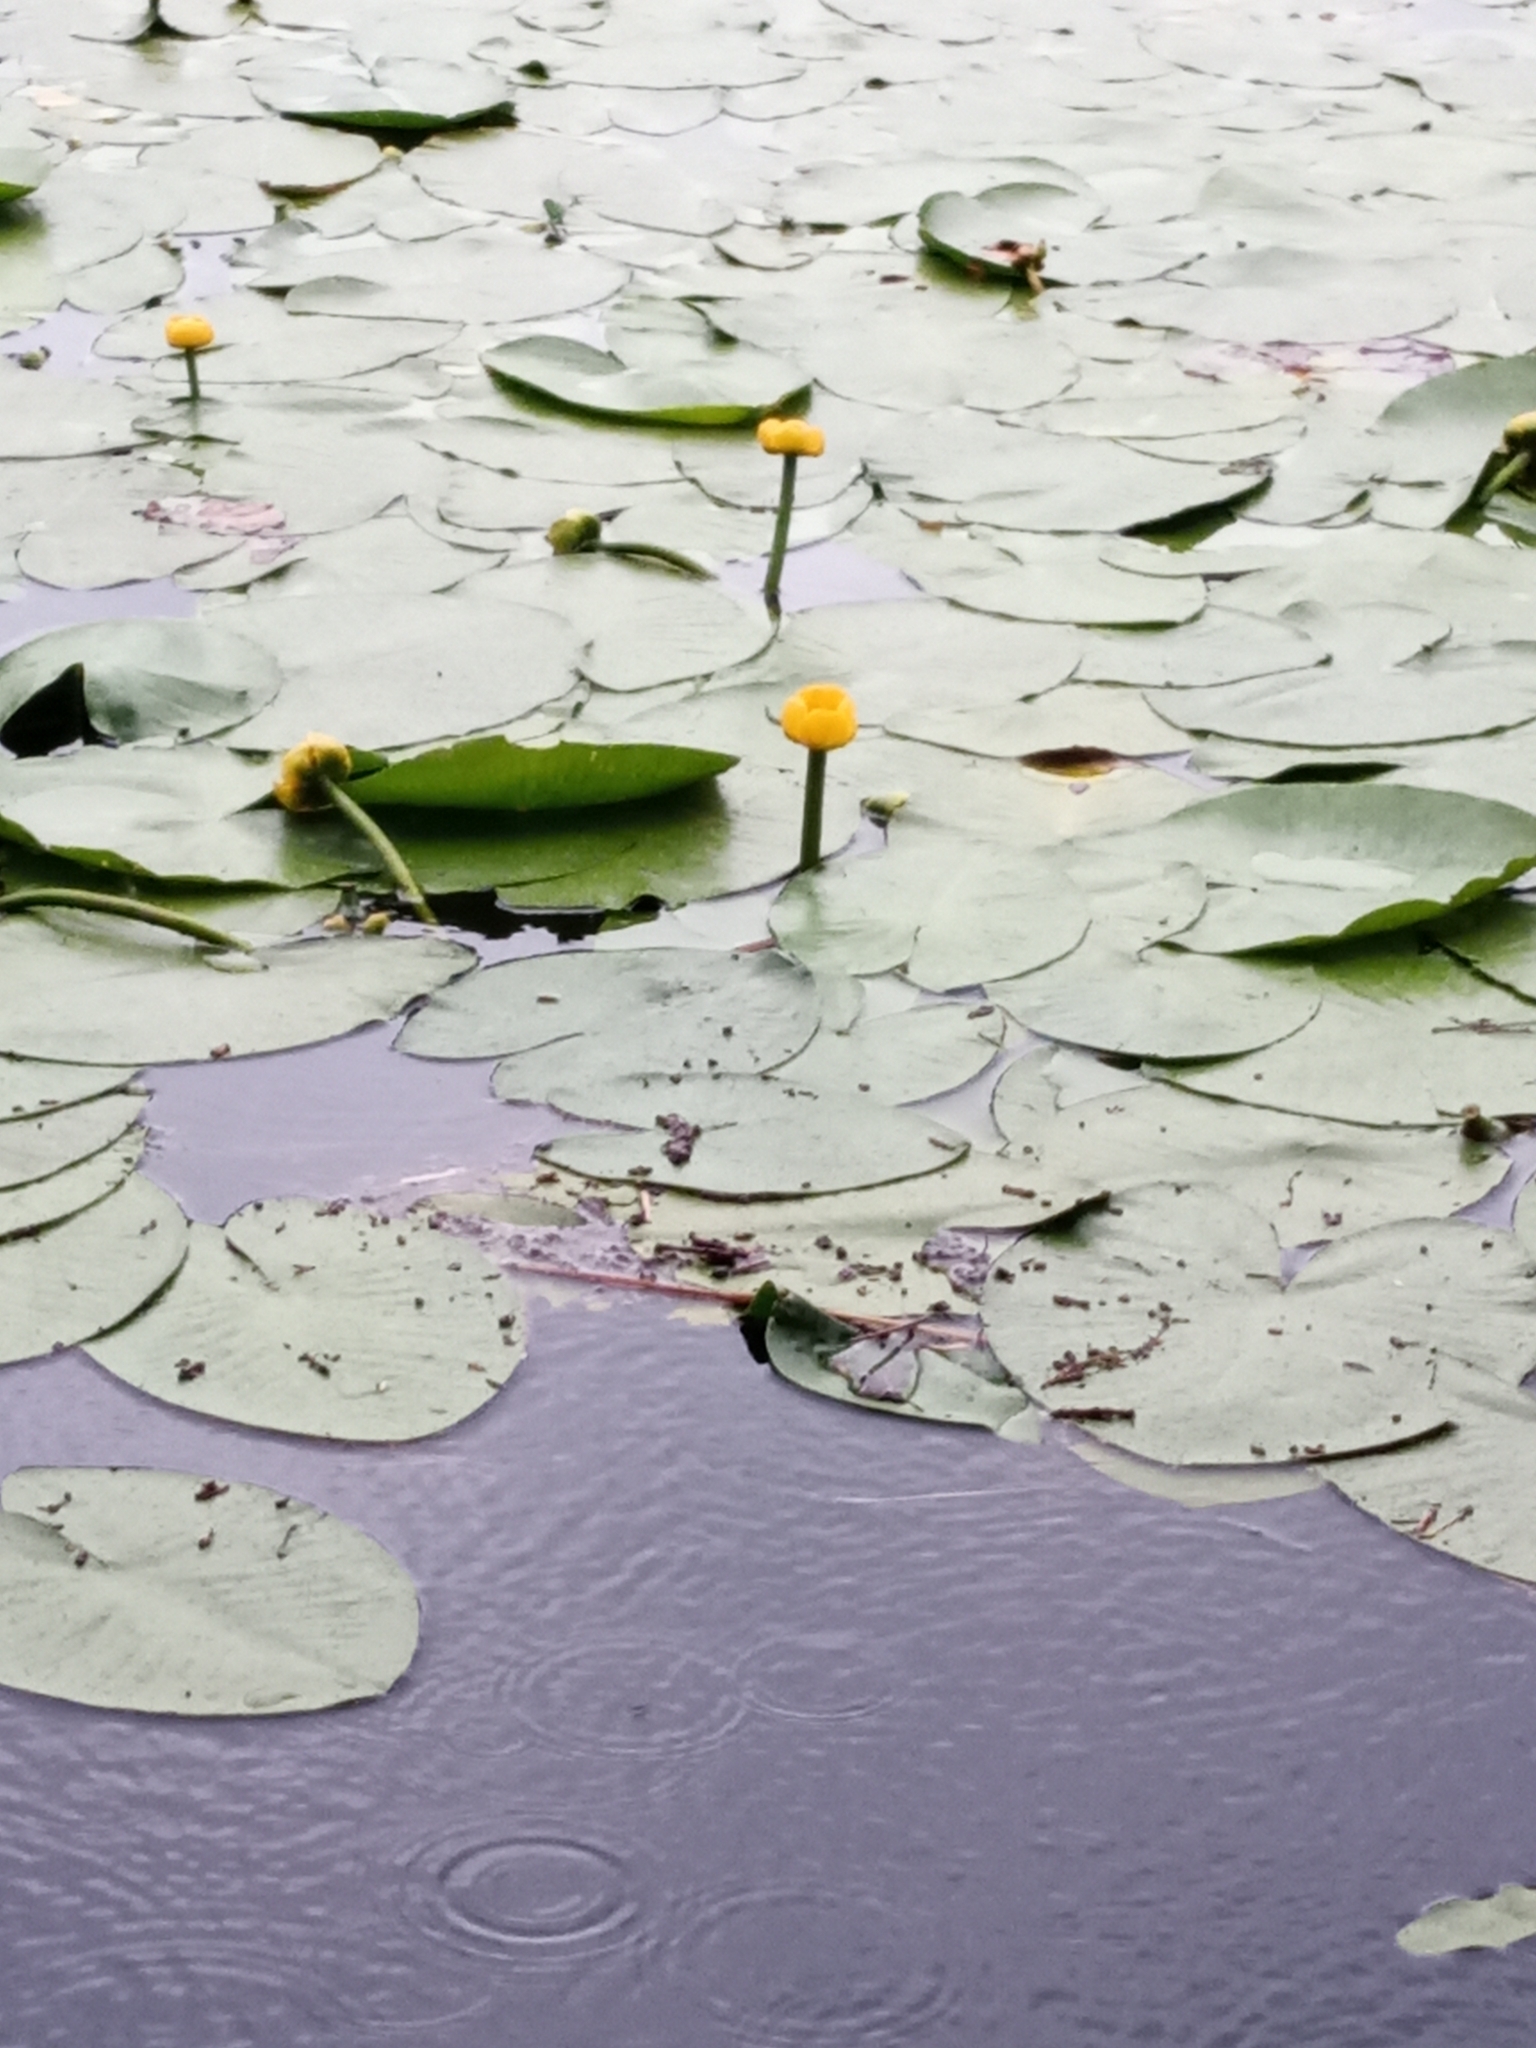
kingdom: Plantae
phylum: Tracheophyta
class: Magnoliopsida
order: Nymphaeales
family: Nymphaeaceae
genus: Nuphar
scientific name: Nuphar lutea
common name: Yellow water-lily
